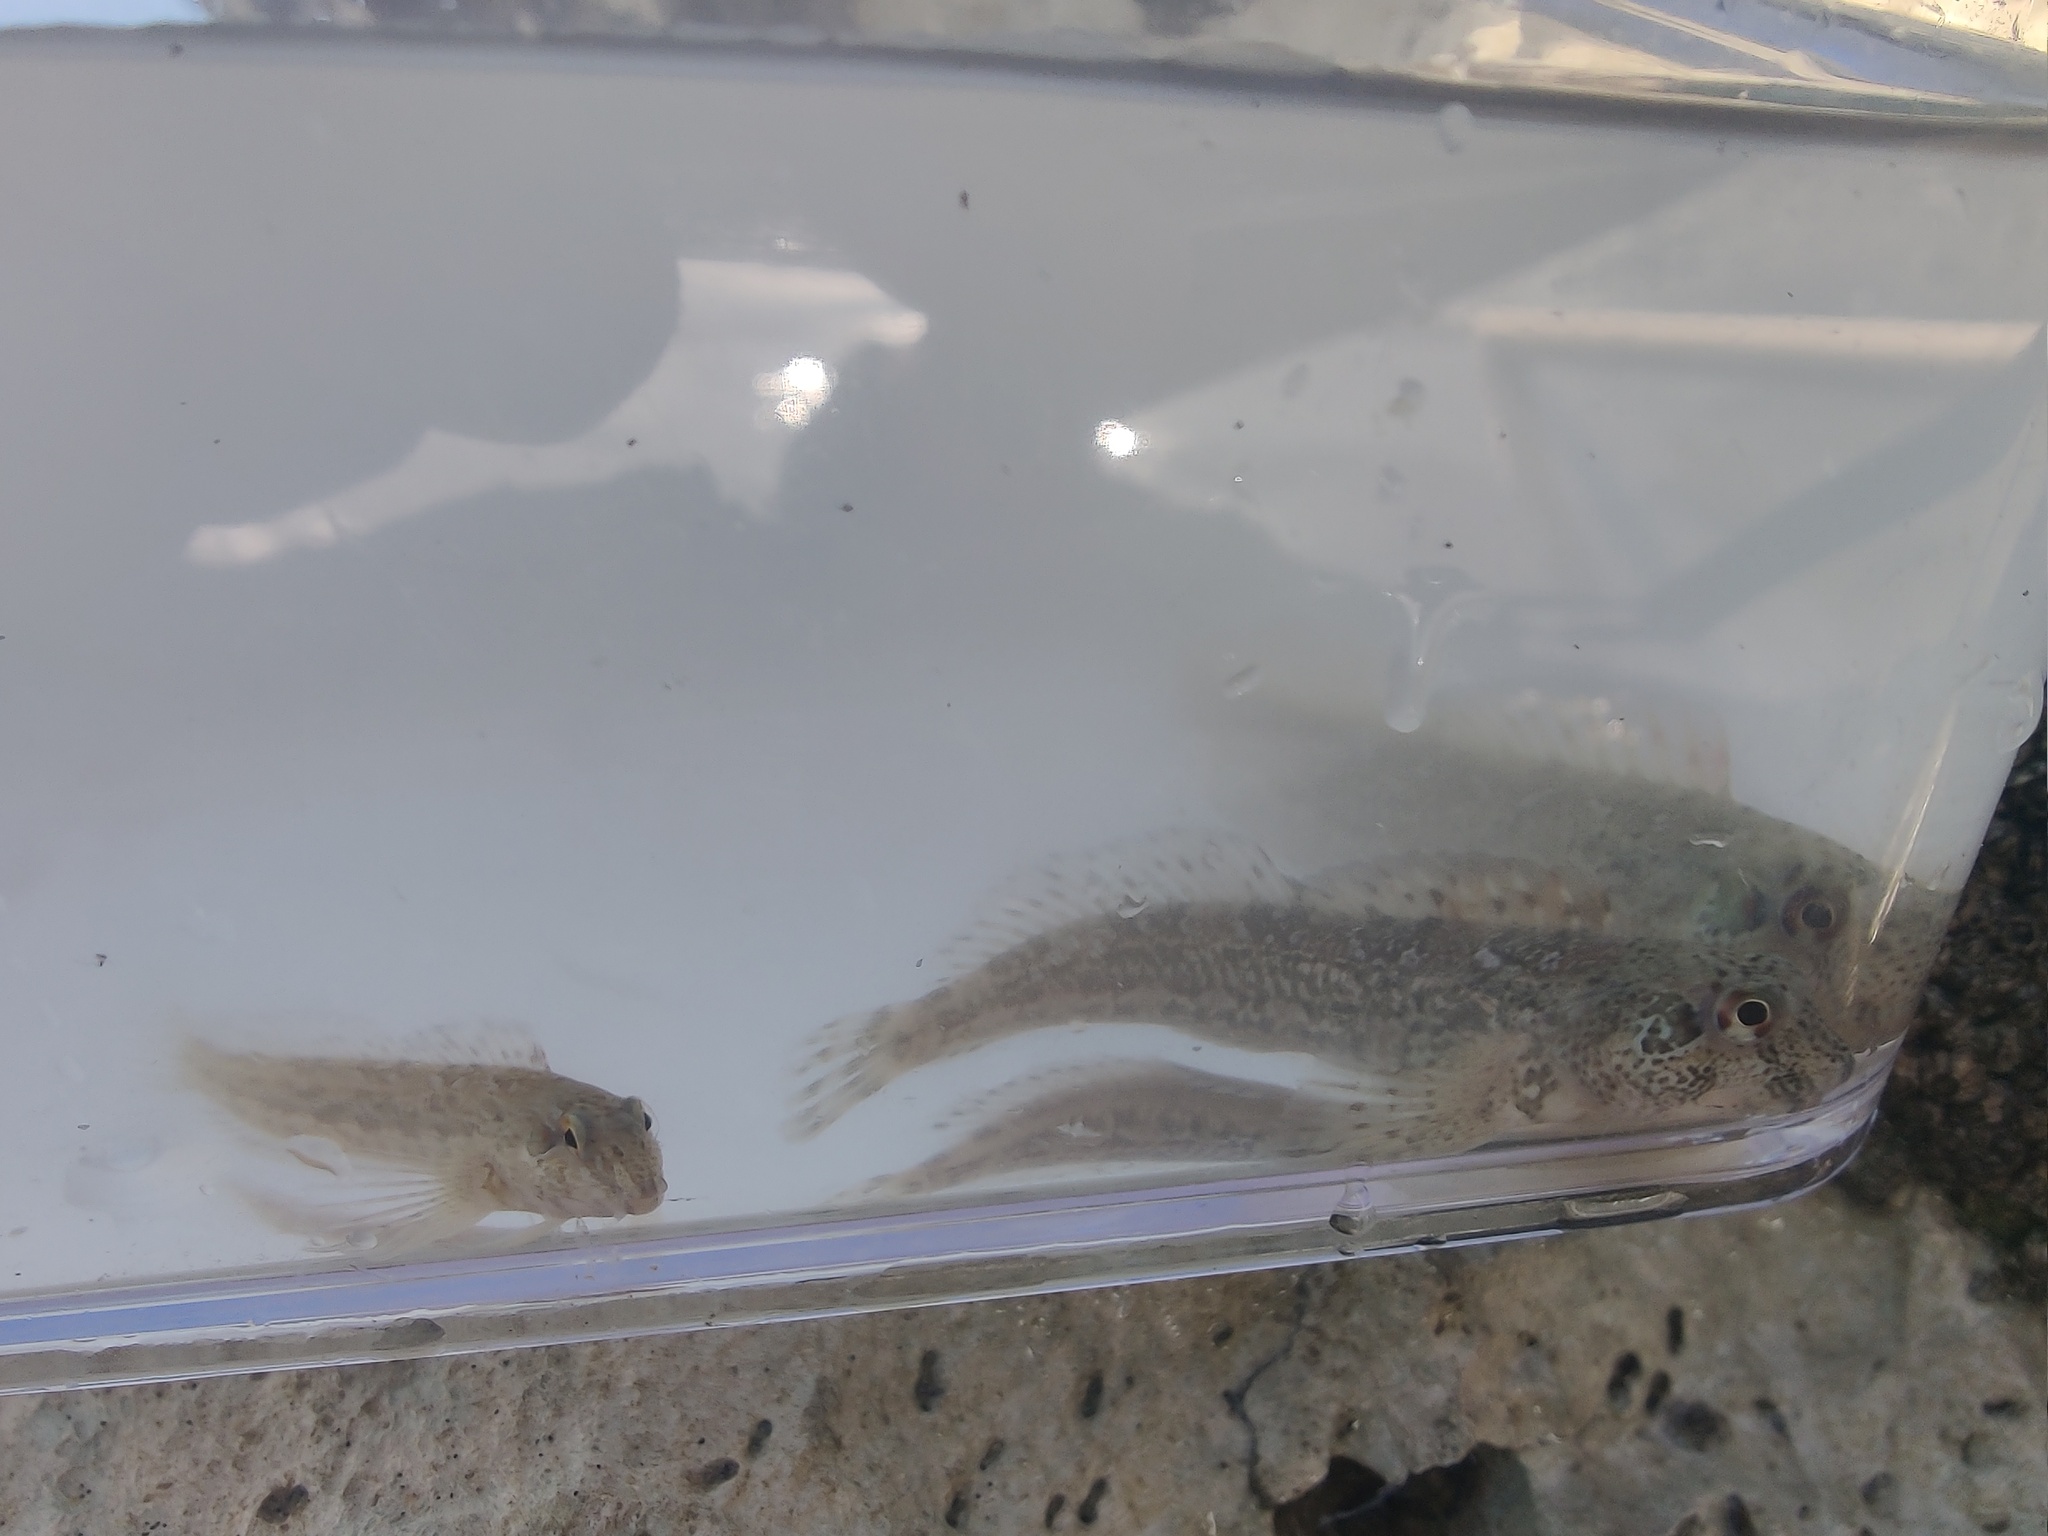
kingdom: Animalia
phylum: Chordata
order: Perciformes
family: Blenniidae
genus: Lipophrys
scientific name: Lipophrys pholis
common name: Shanny
